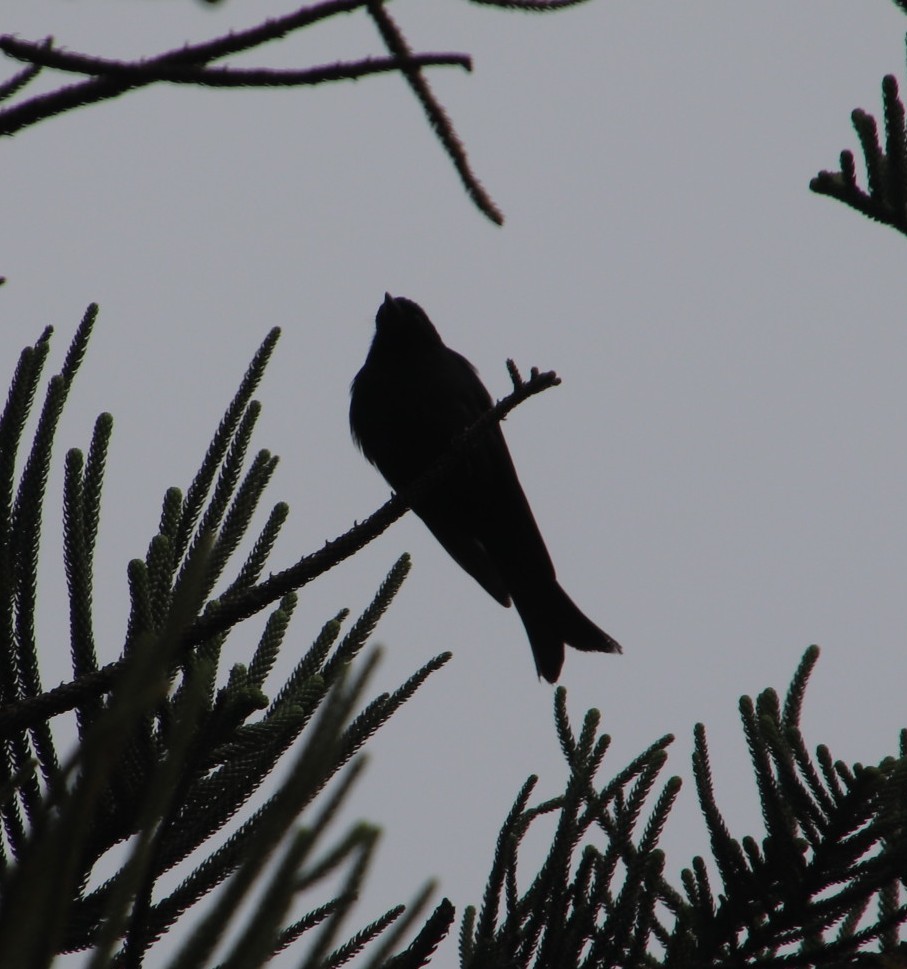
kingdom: Animalia
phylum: Chordata
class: Aves
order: Passeriformes
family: Dicruridae
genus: Dicrurus
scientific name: Dicrurus adsimilis
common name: Fork-tailed drongo
